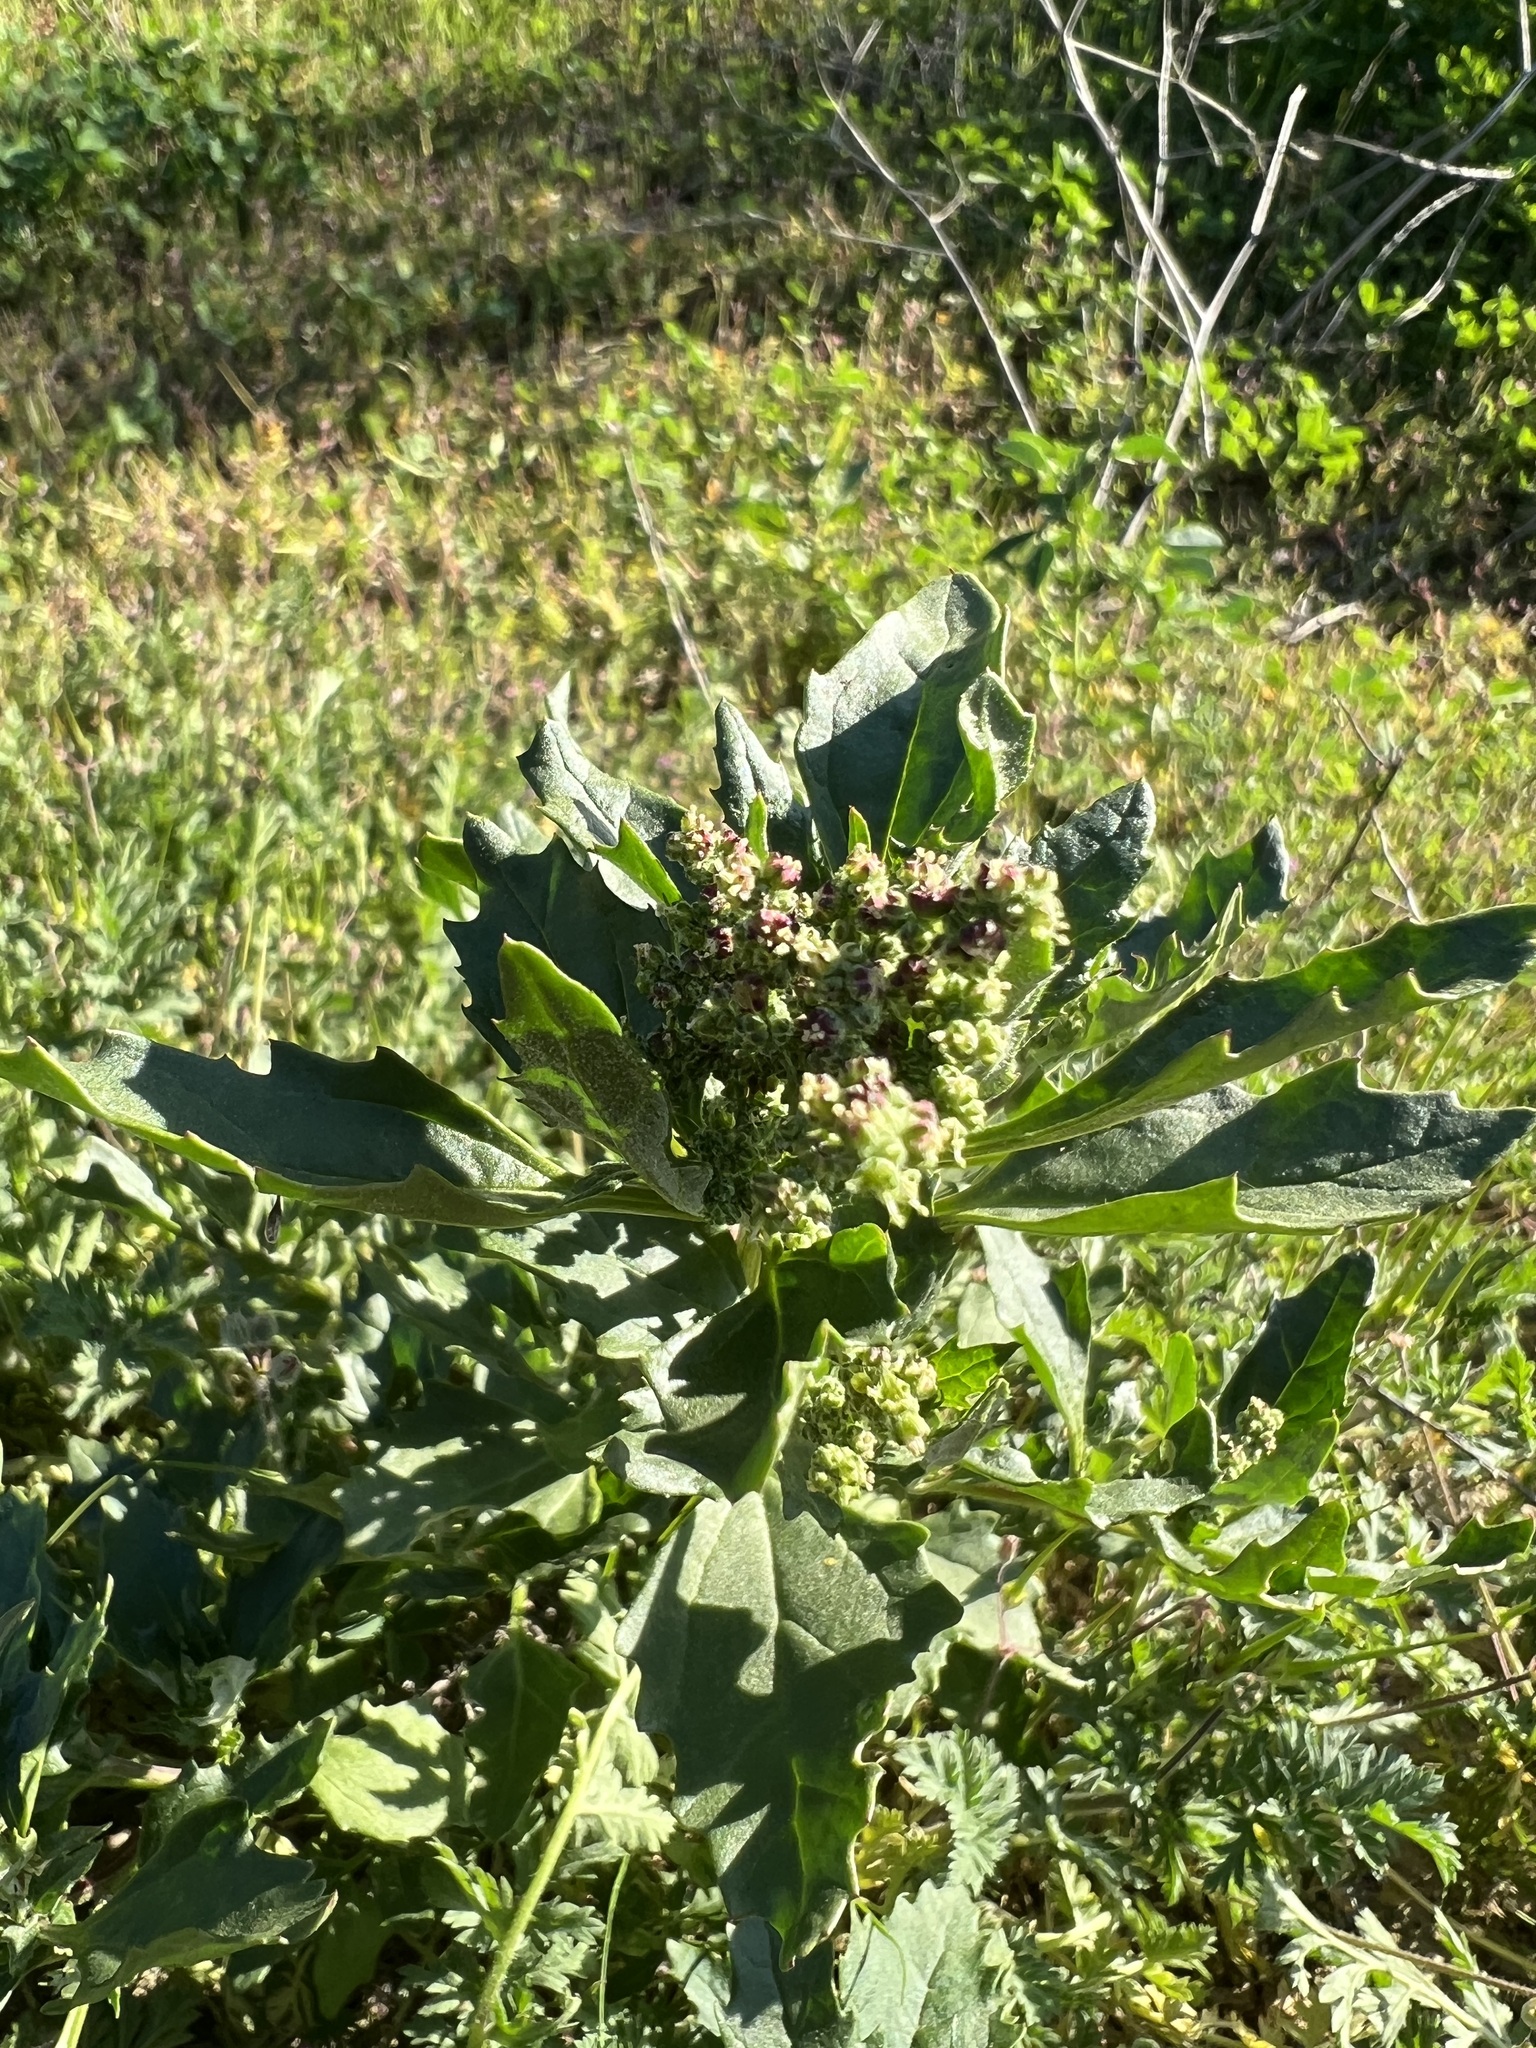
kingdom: Plantae
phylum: Tracheophyta
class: Magnoliopsida
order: Caryophyllales
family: Amaranthaceae
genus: Chenopodiastrum
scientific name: Chenopodiastrum murale
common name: Sowbane
